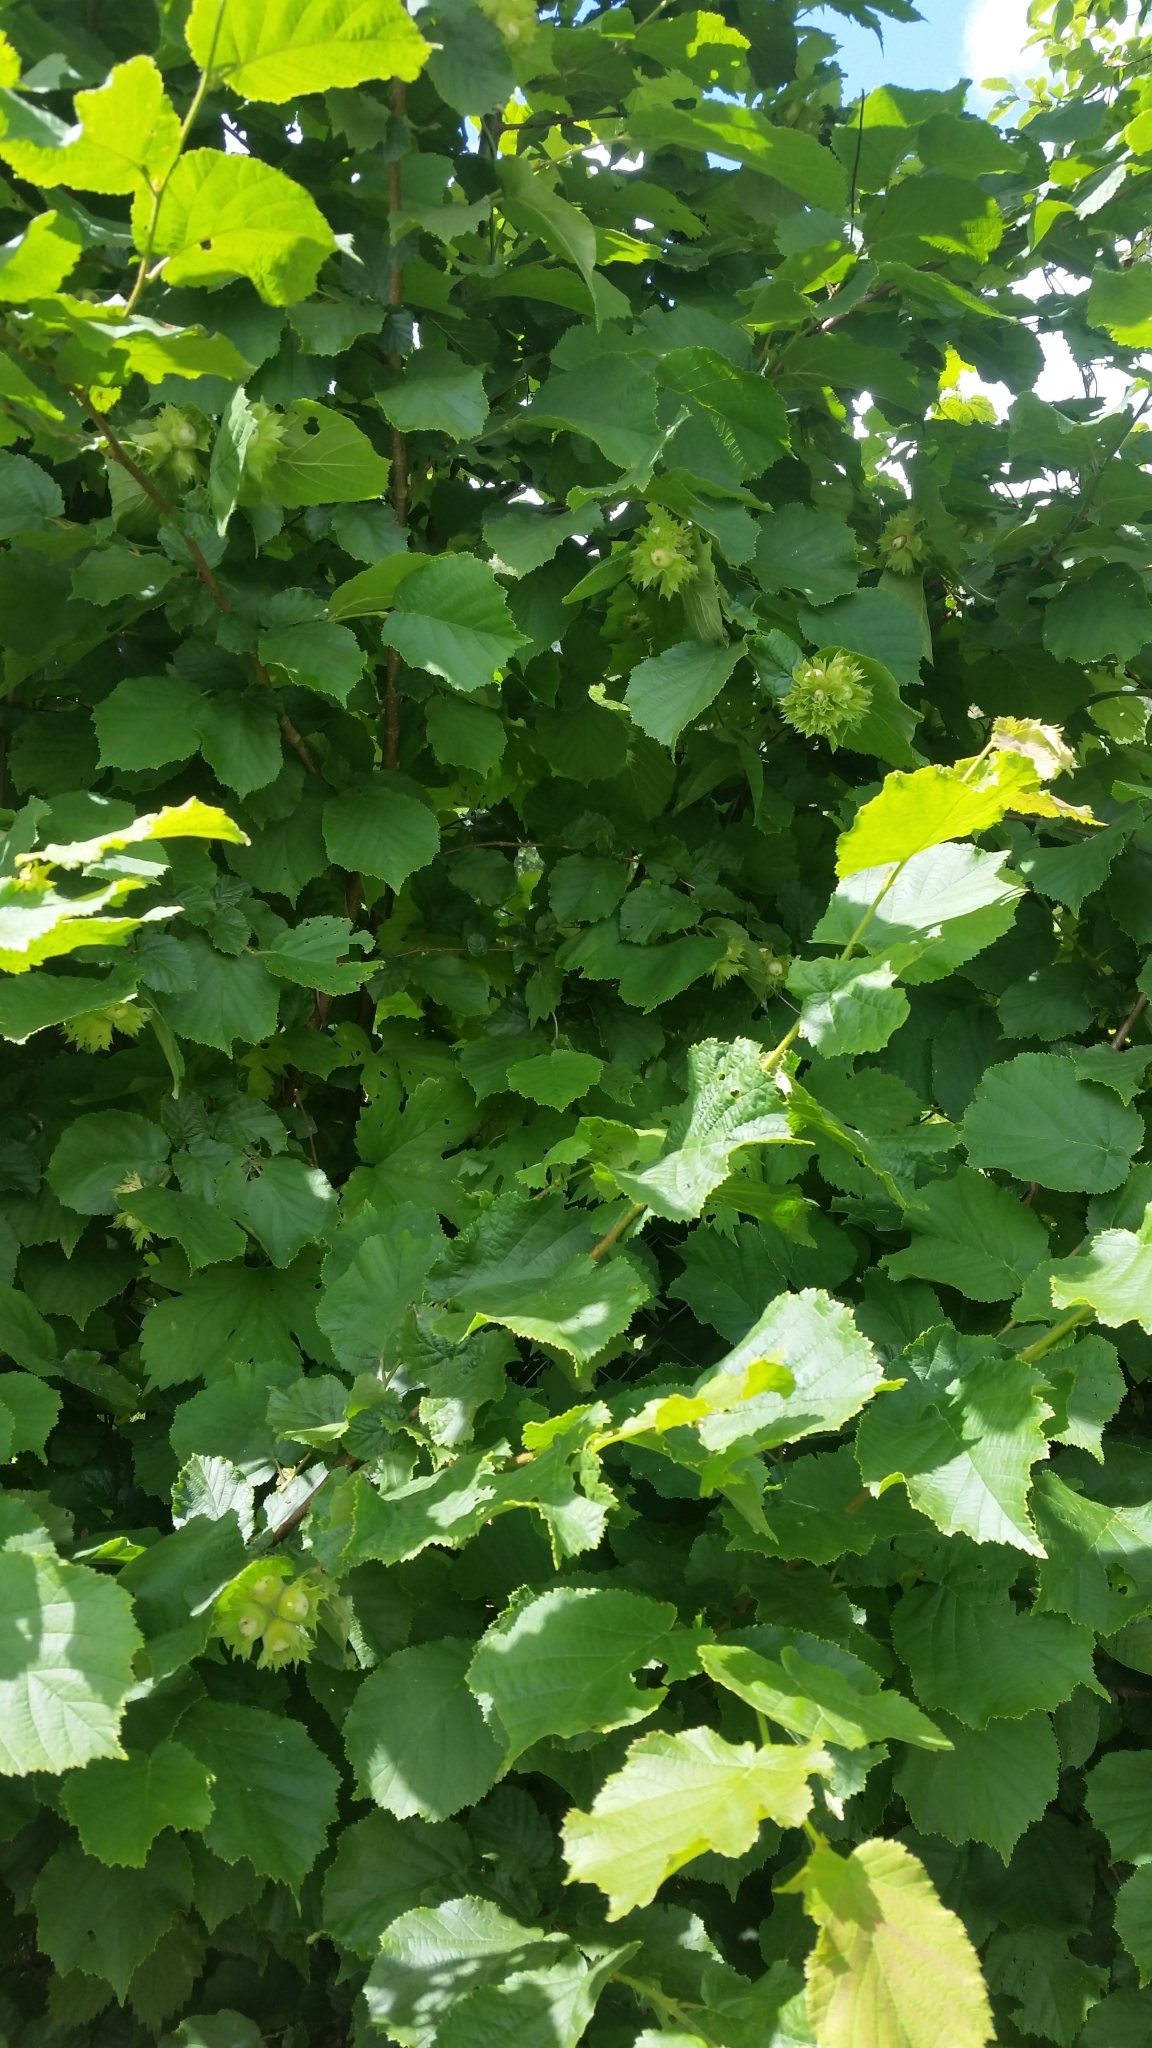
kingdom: Plantae
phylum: Tracheophyta
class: Magnoliopsida
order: Fagales
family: Betulaceae
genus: Corylus
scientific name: Corylus avellana
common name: European hazel
